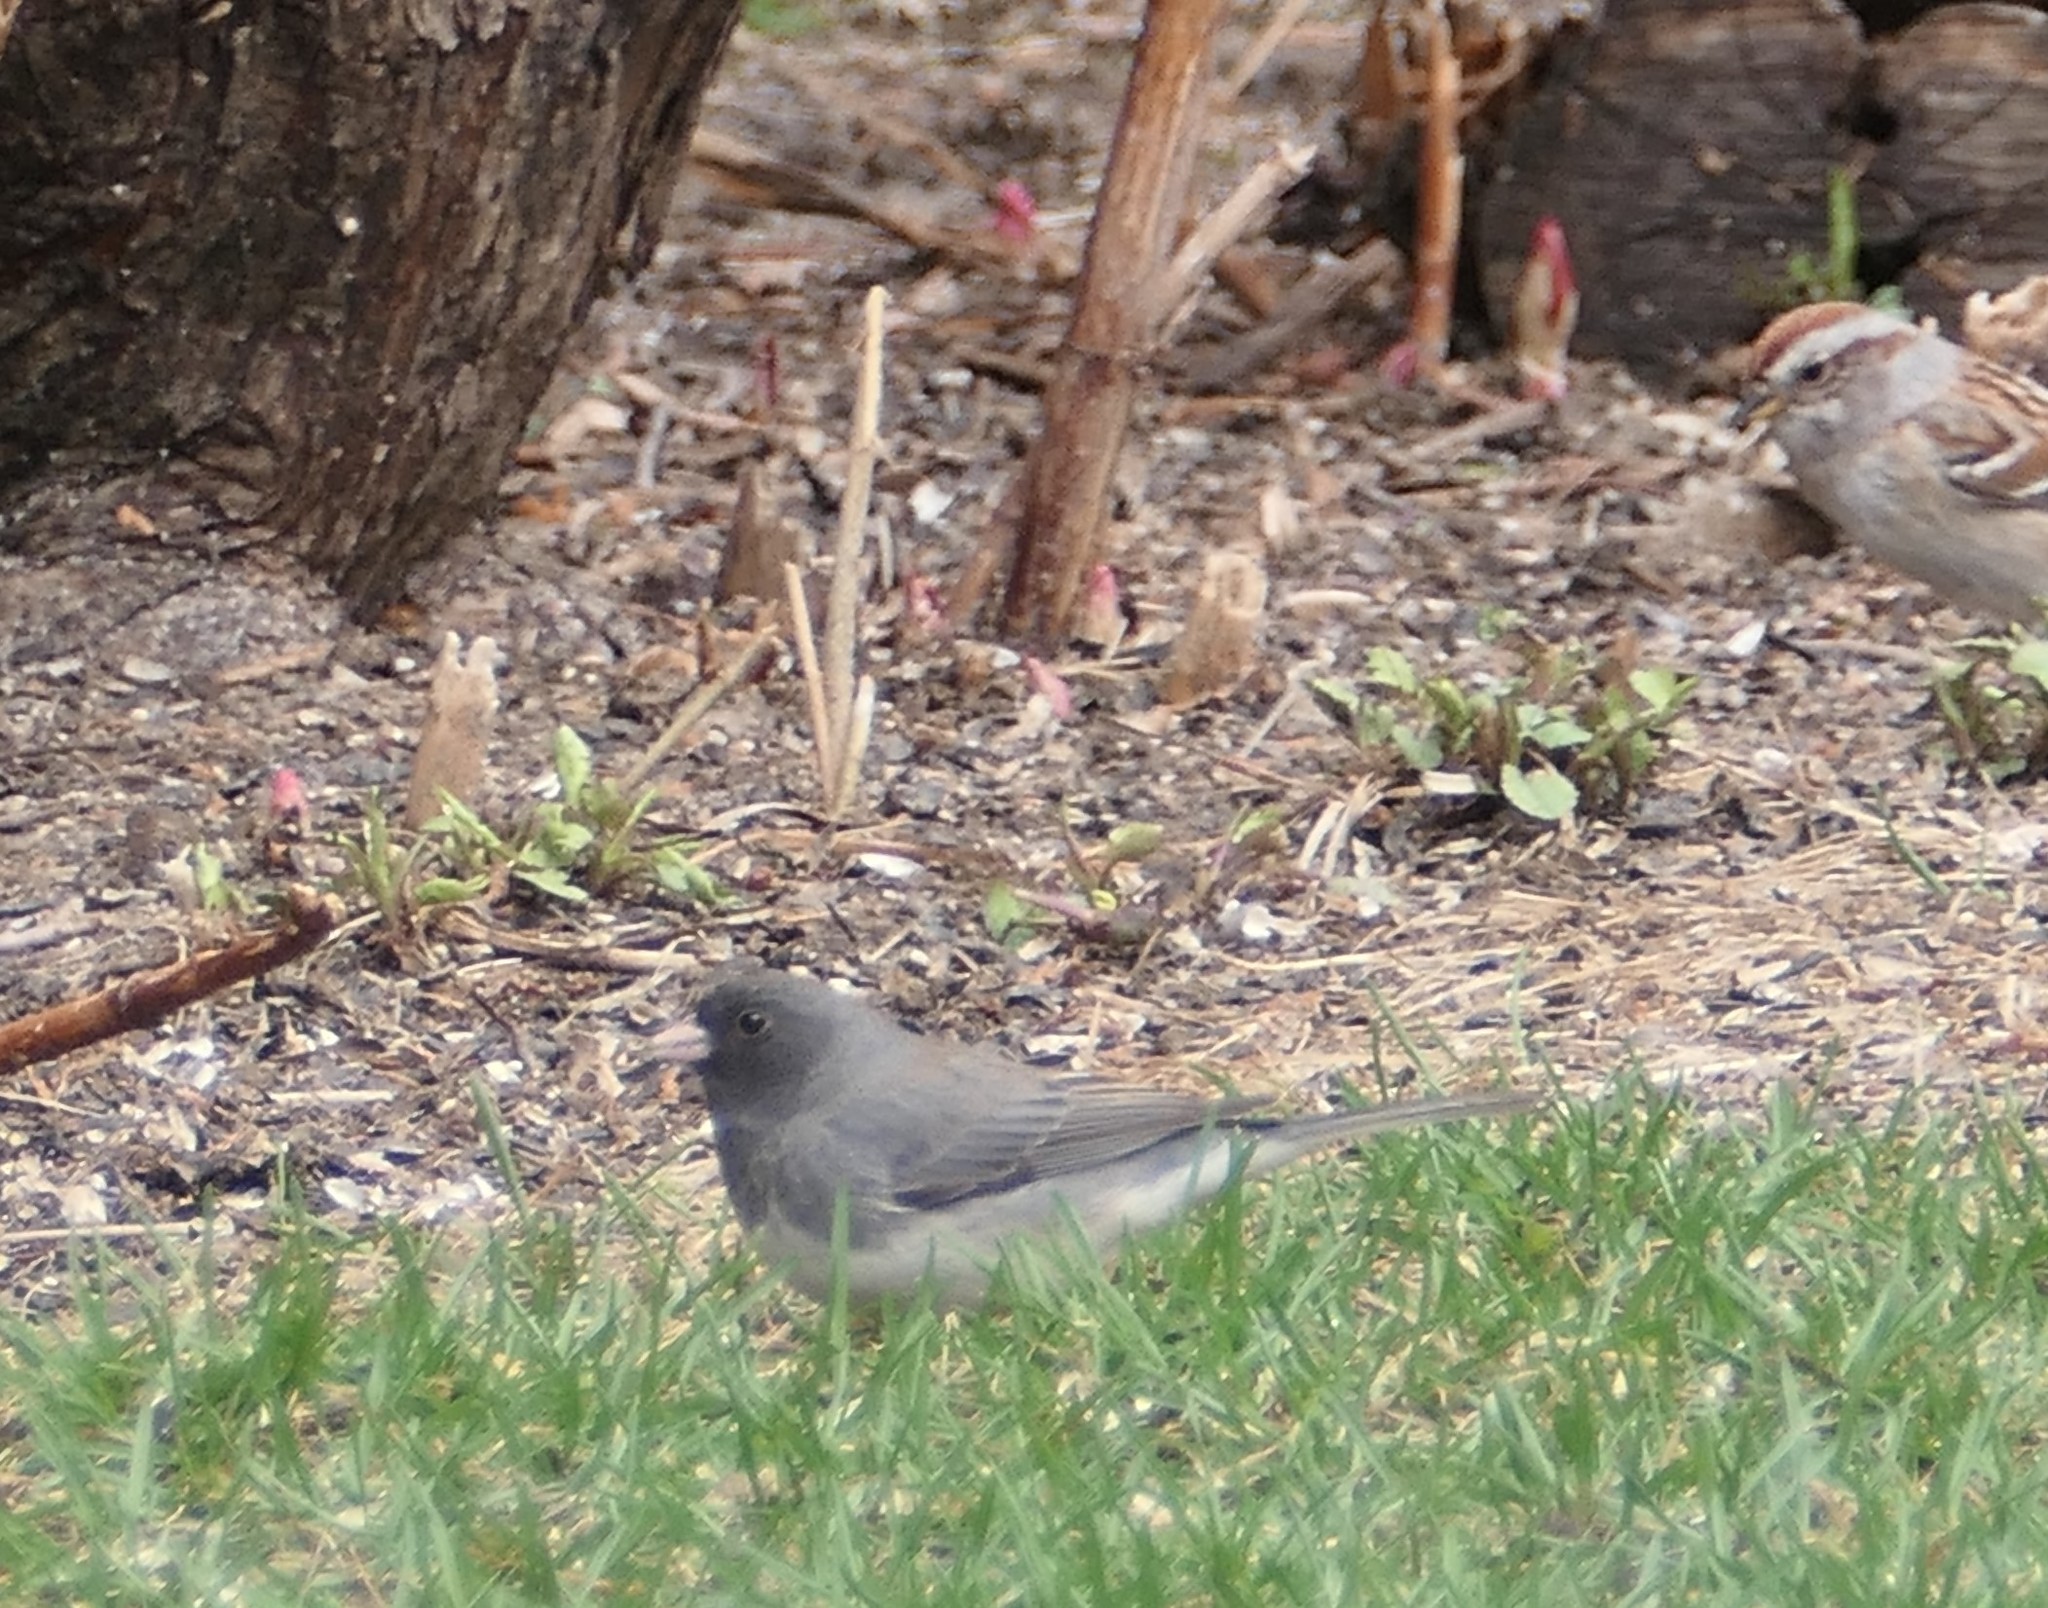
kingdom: Animalia
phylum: Chordata
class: Aves
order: Passeriformes
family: Passerellidae
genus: Junco
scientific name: Junco hyemalis
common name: Dark-eyed junco
